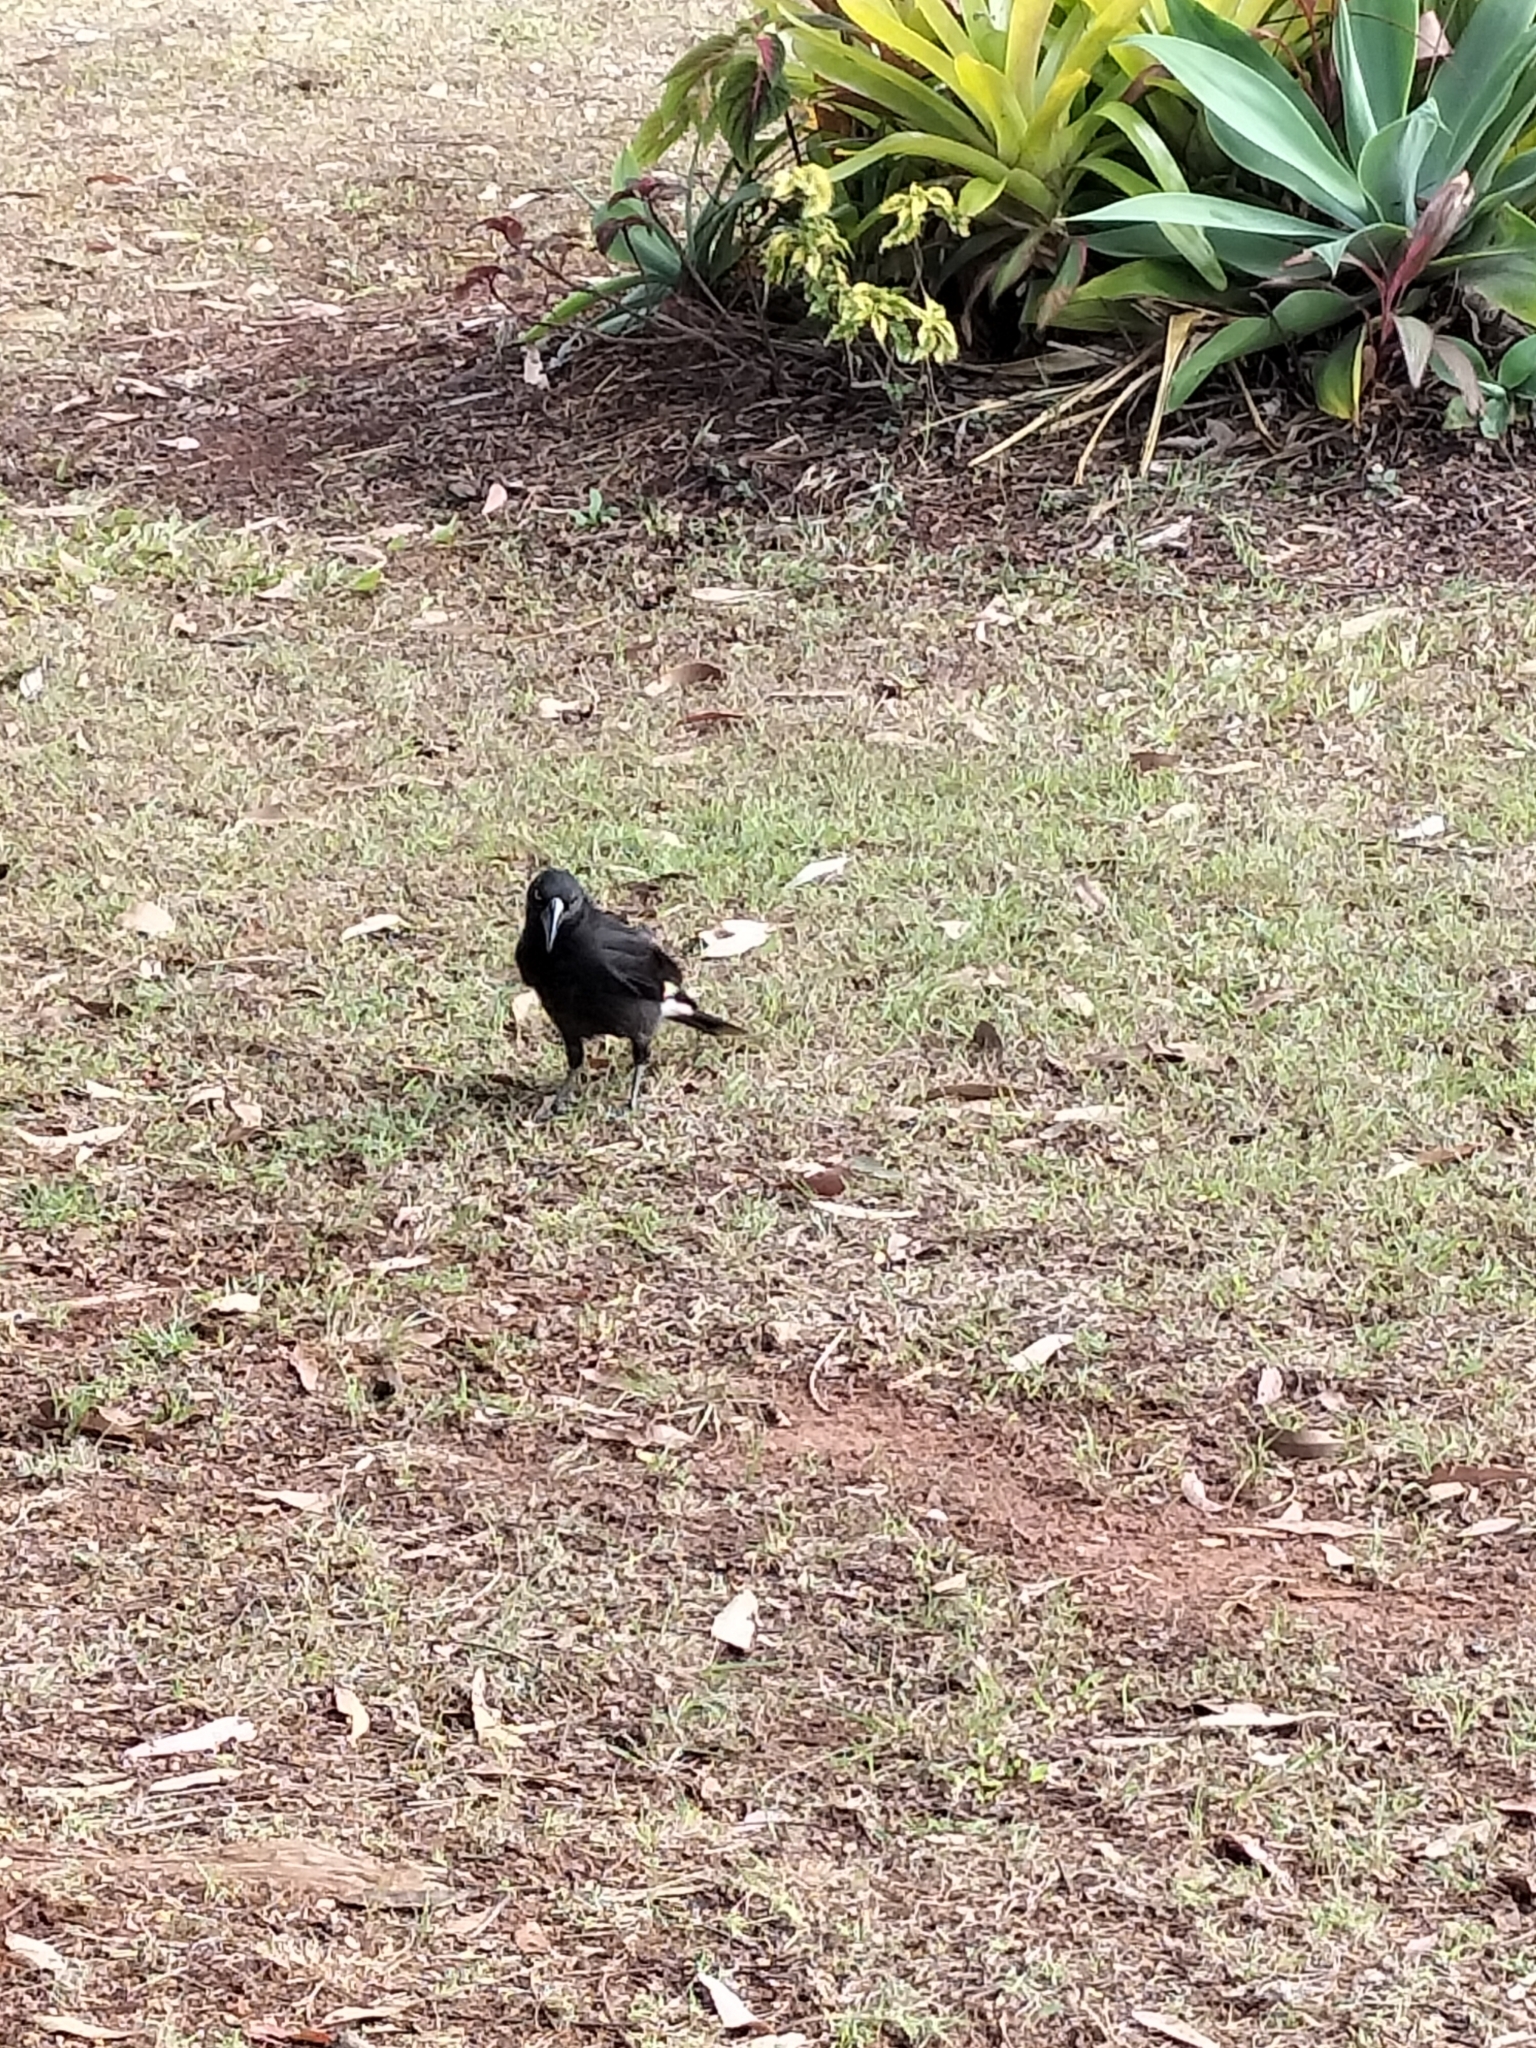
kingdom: Animalia
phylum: Chordata
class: Aves
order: Passeriformes
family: Cracticidae
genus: Strepera
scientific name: Strepera graculina
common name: Pied currawong
